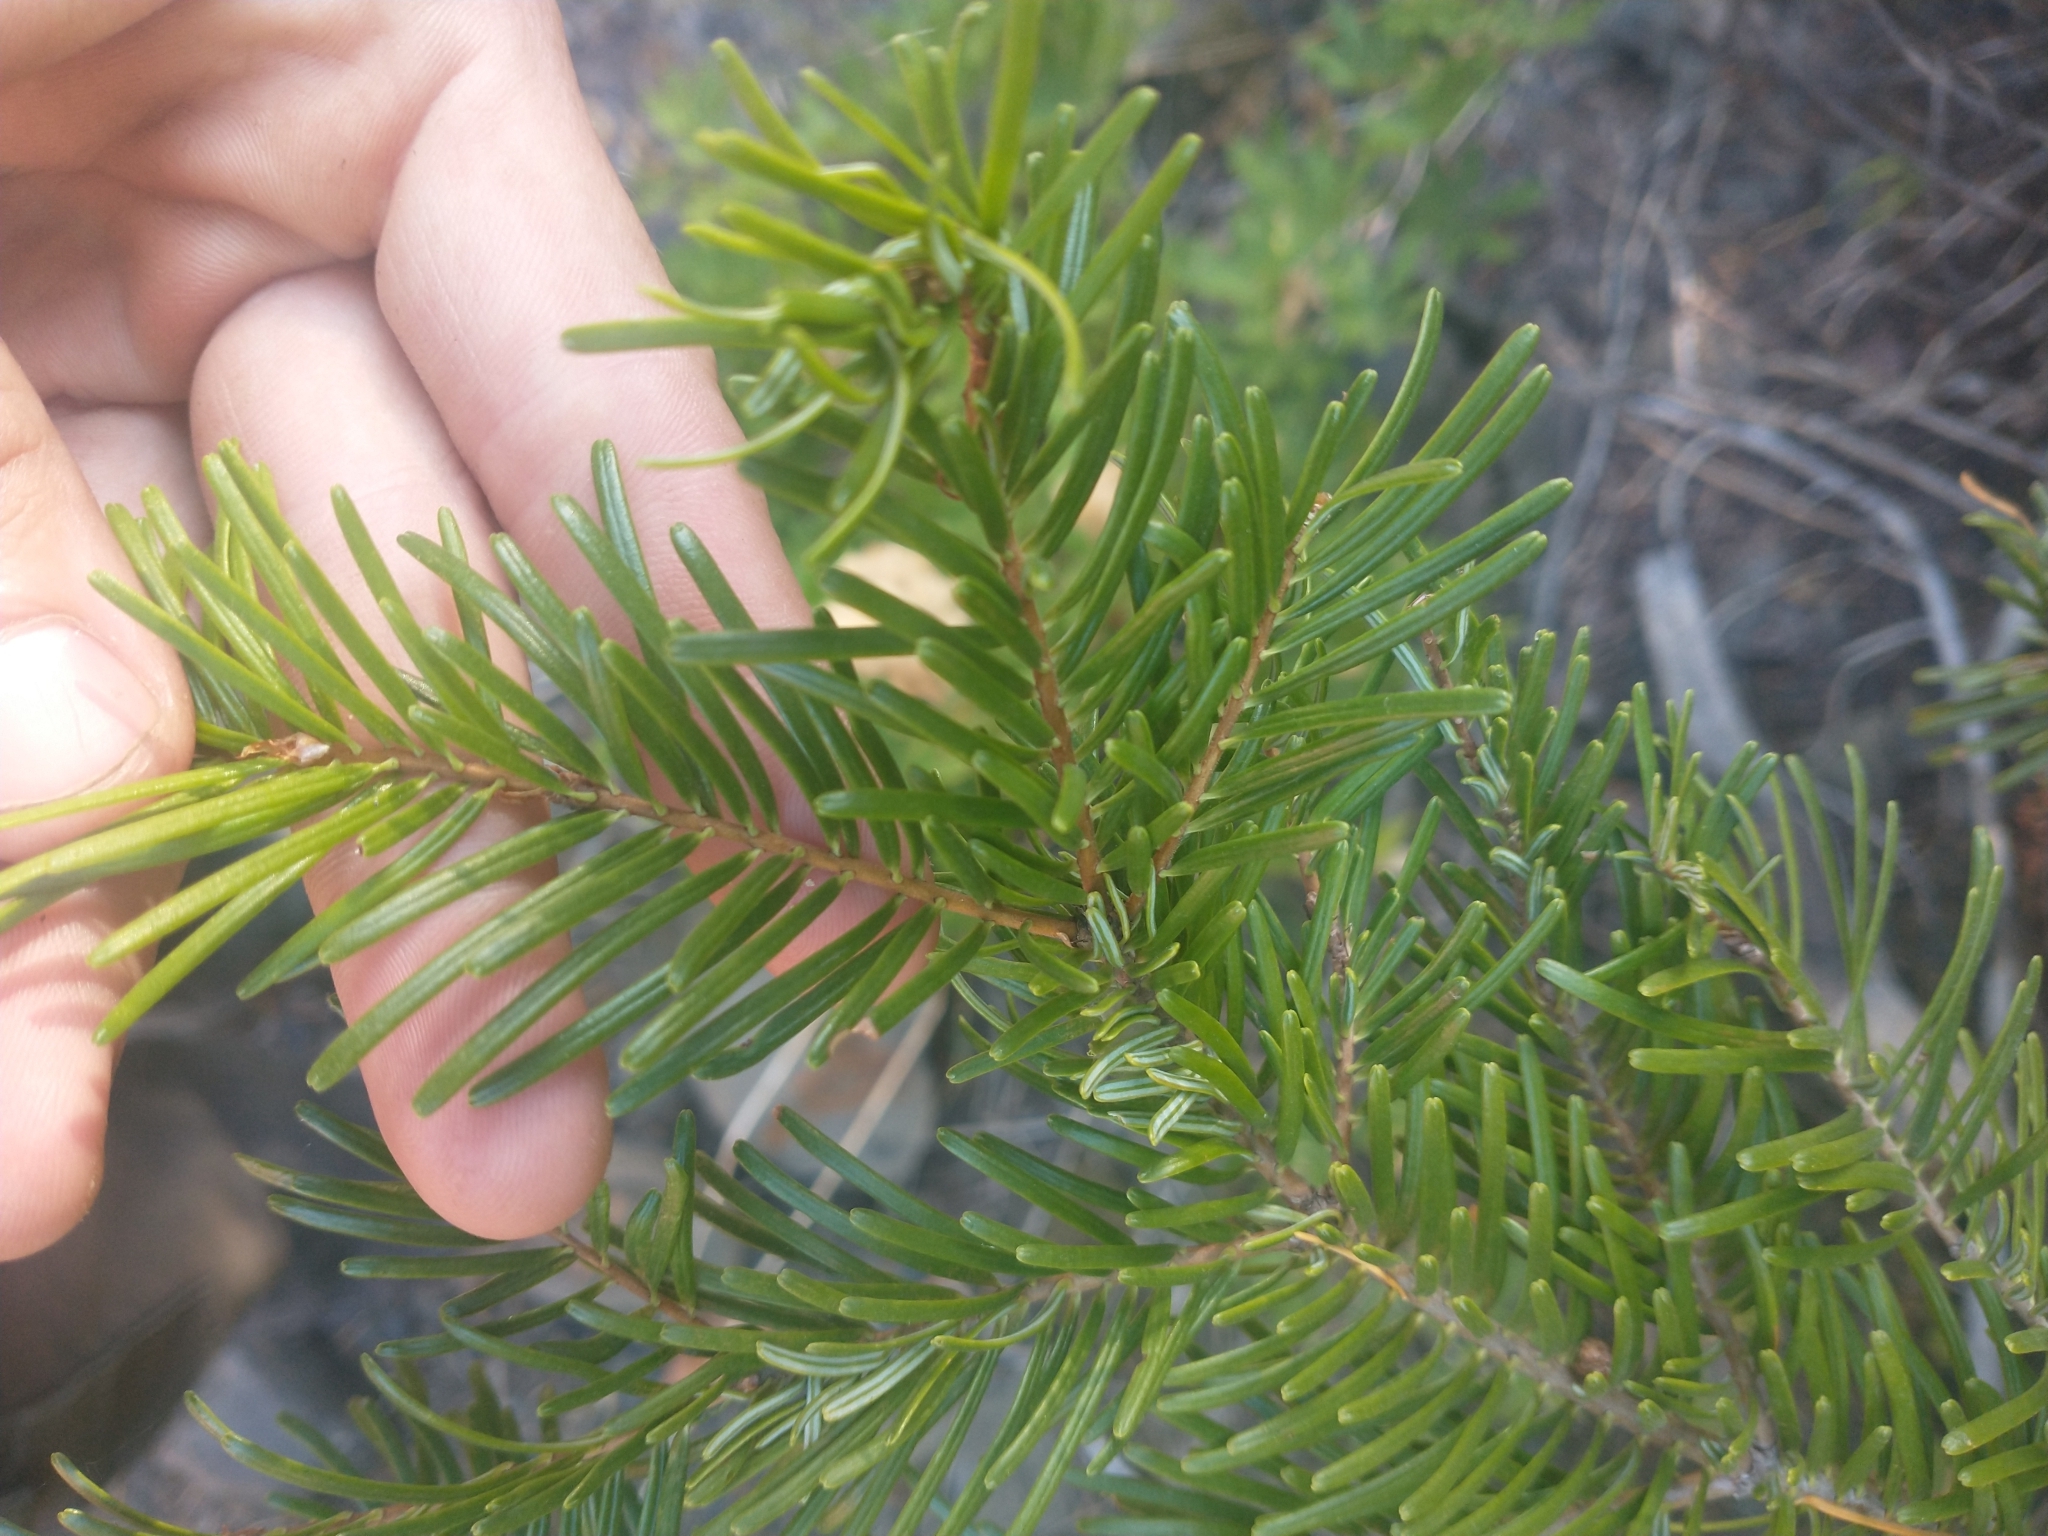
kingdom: Plantae
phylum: Tracheophyta
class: Pinopsida
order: Pinales
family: Pinaceae
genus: Abies
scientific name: Abies concolor
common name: Colorado fir
